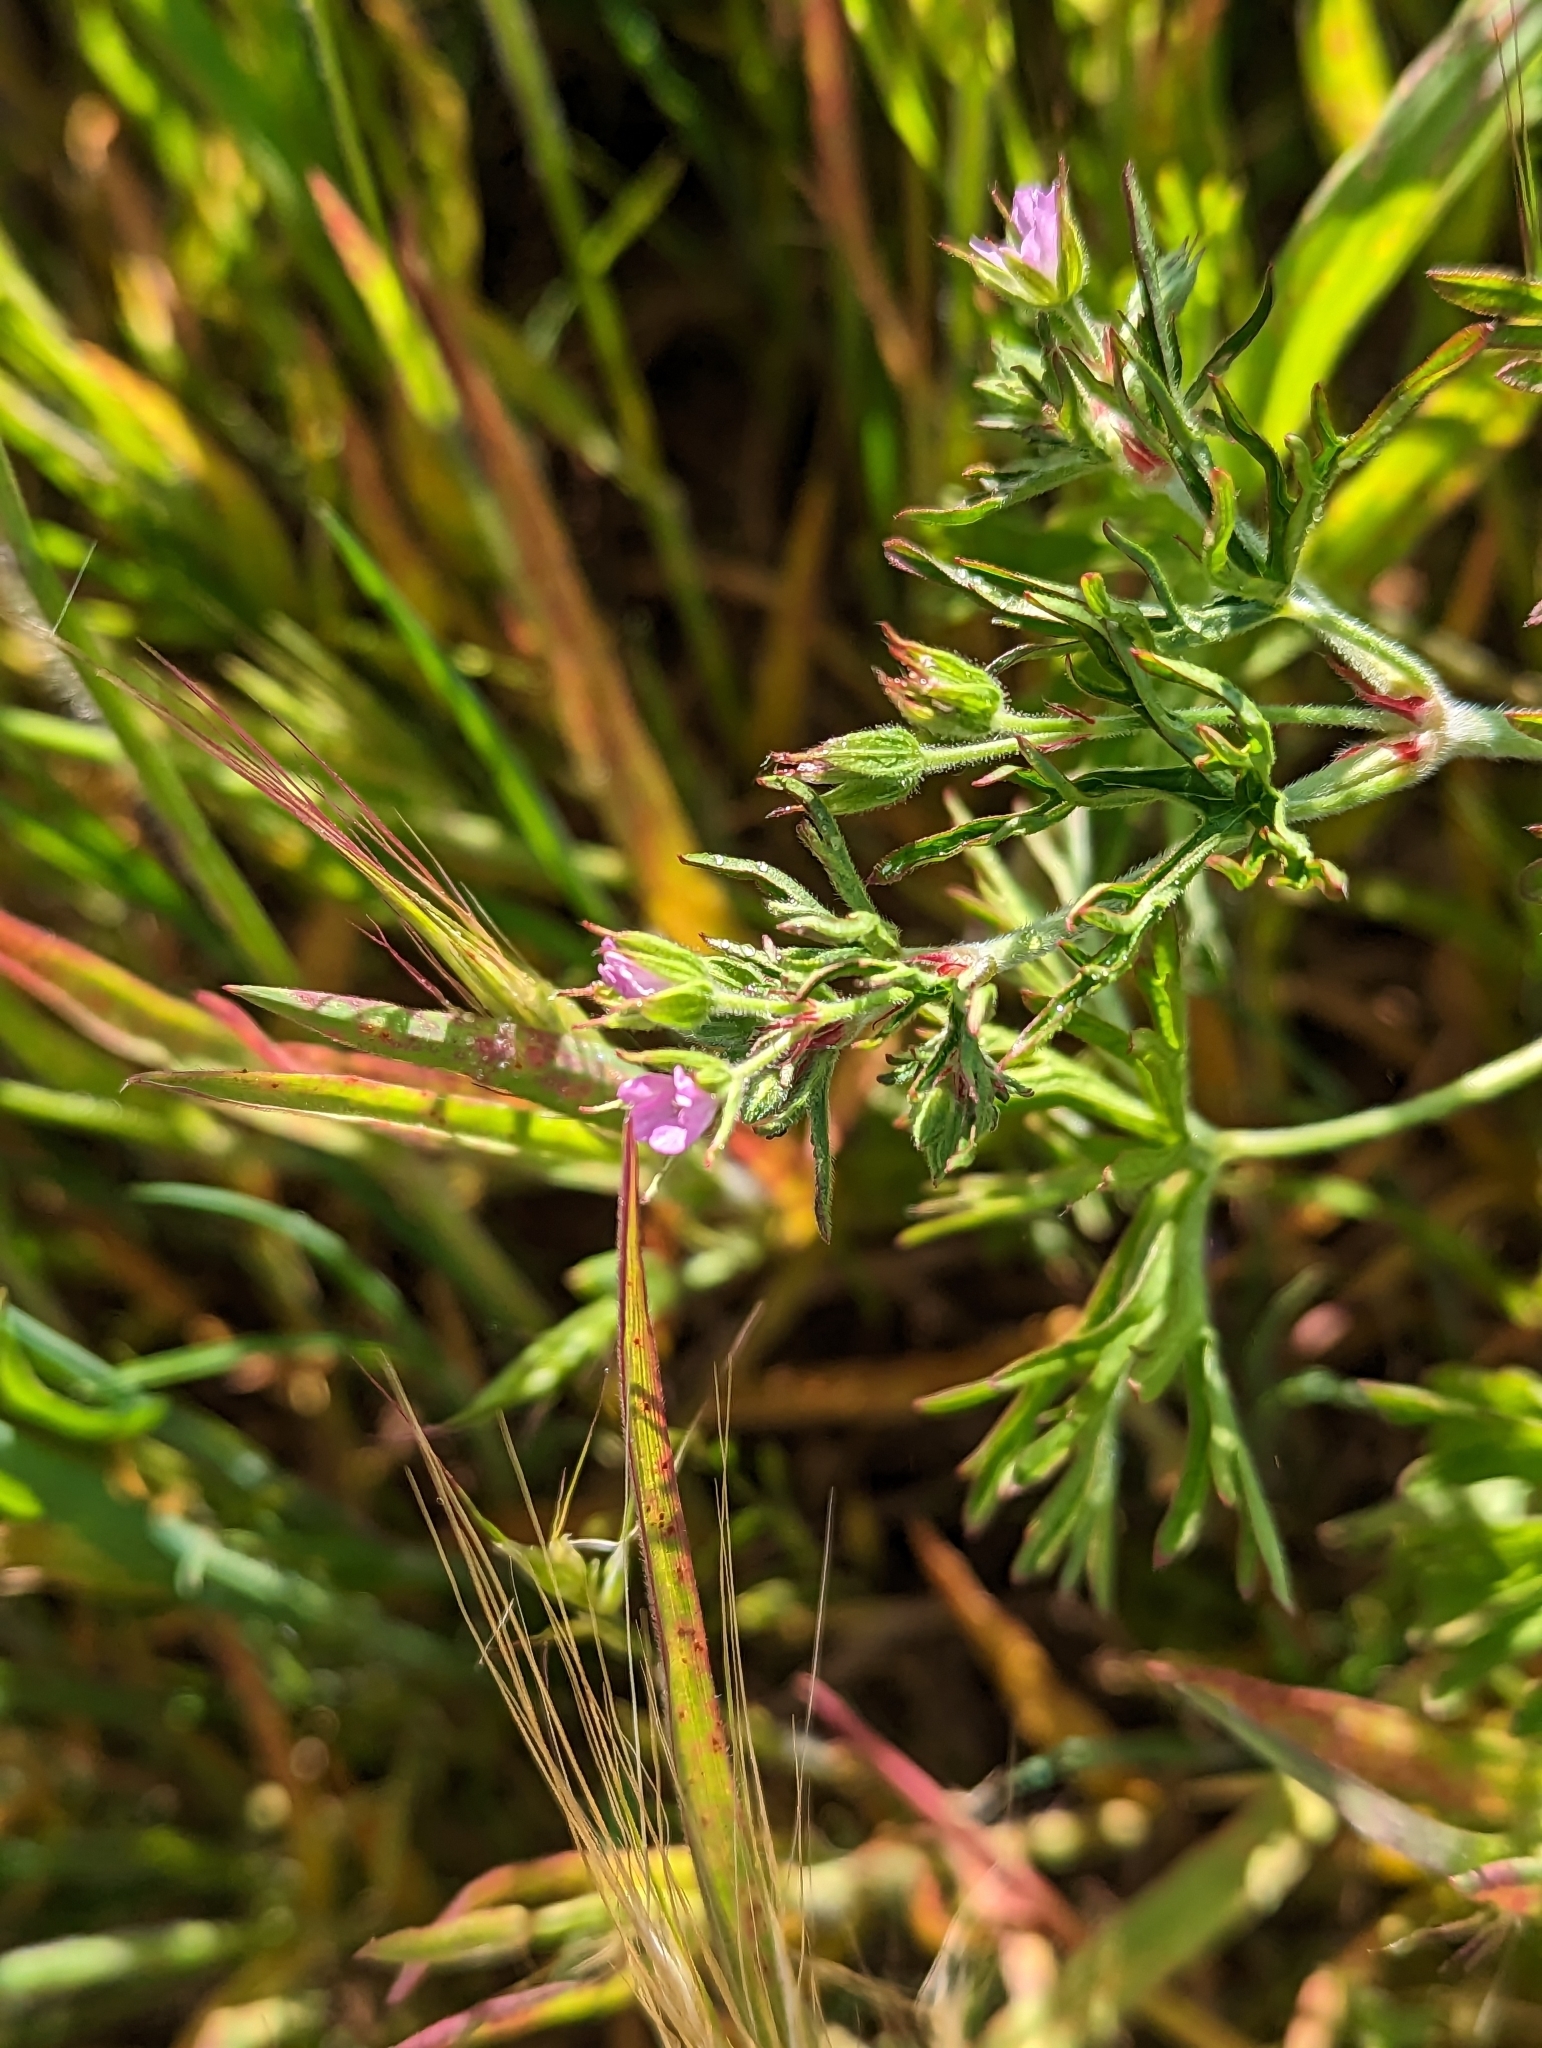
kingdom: Plantae
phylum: Tracheophyta
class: Magnoliopsida
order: Geraniales
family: Geraniaceae
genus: Geranium
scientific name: Geranium dissectum
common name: Cut-leaved crane's-bill
